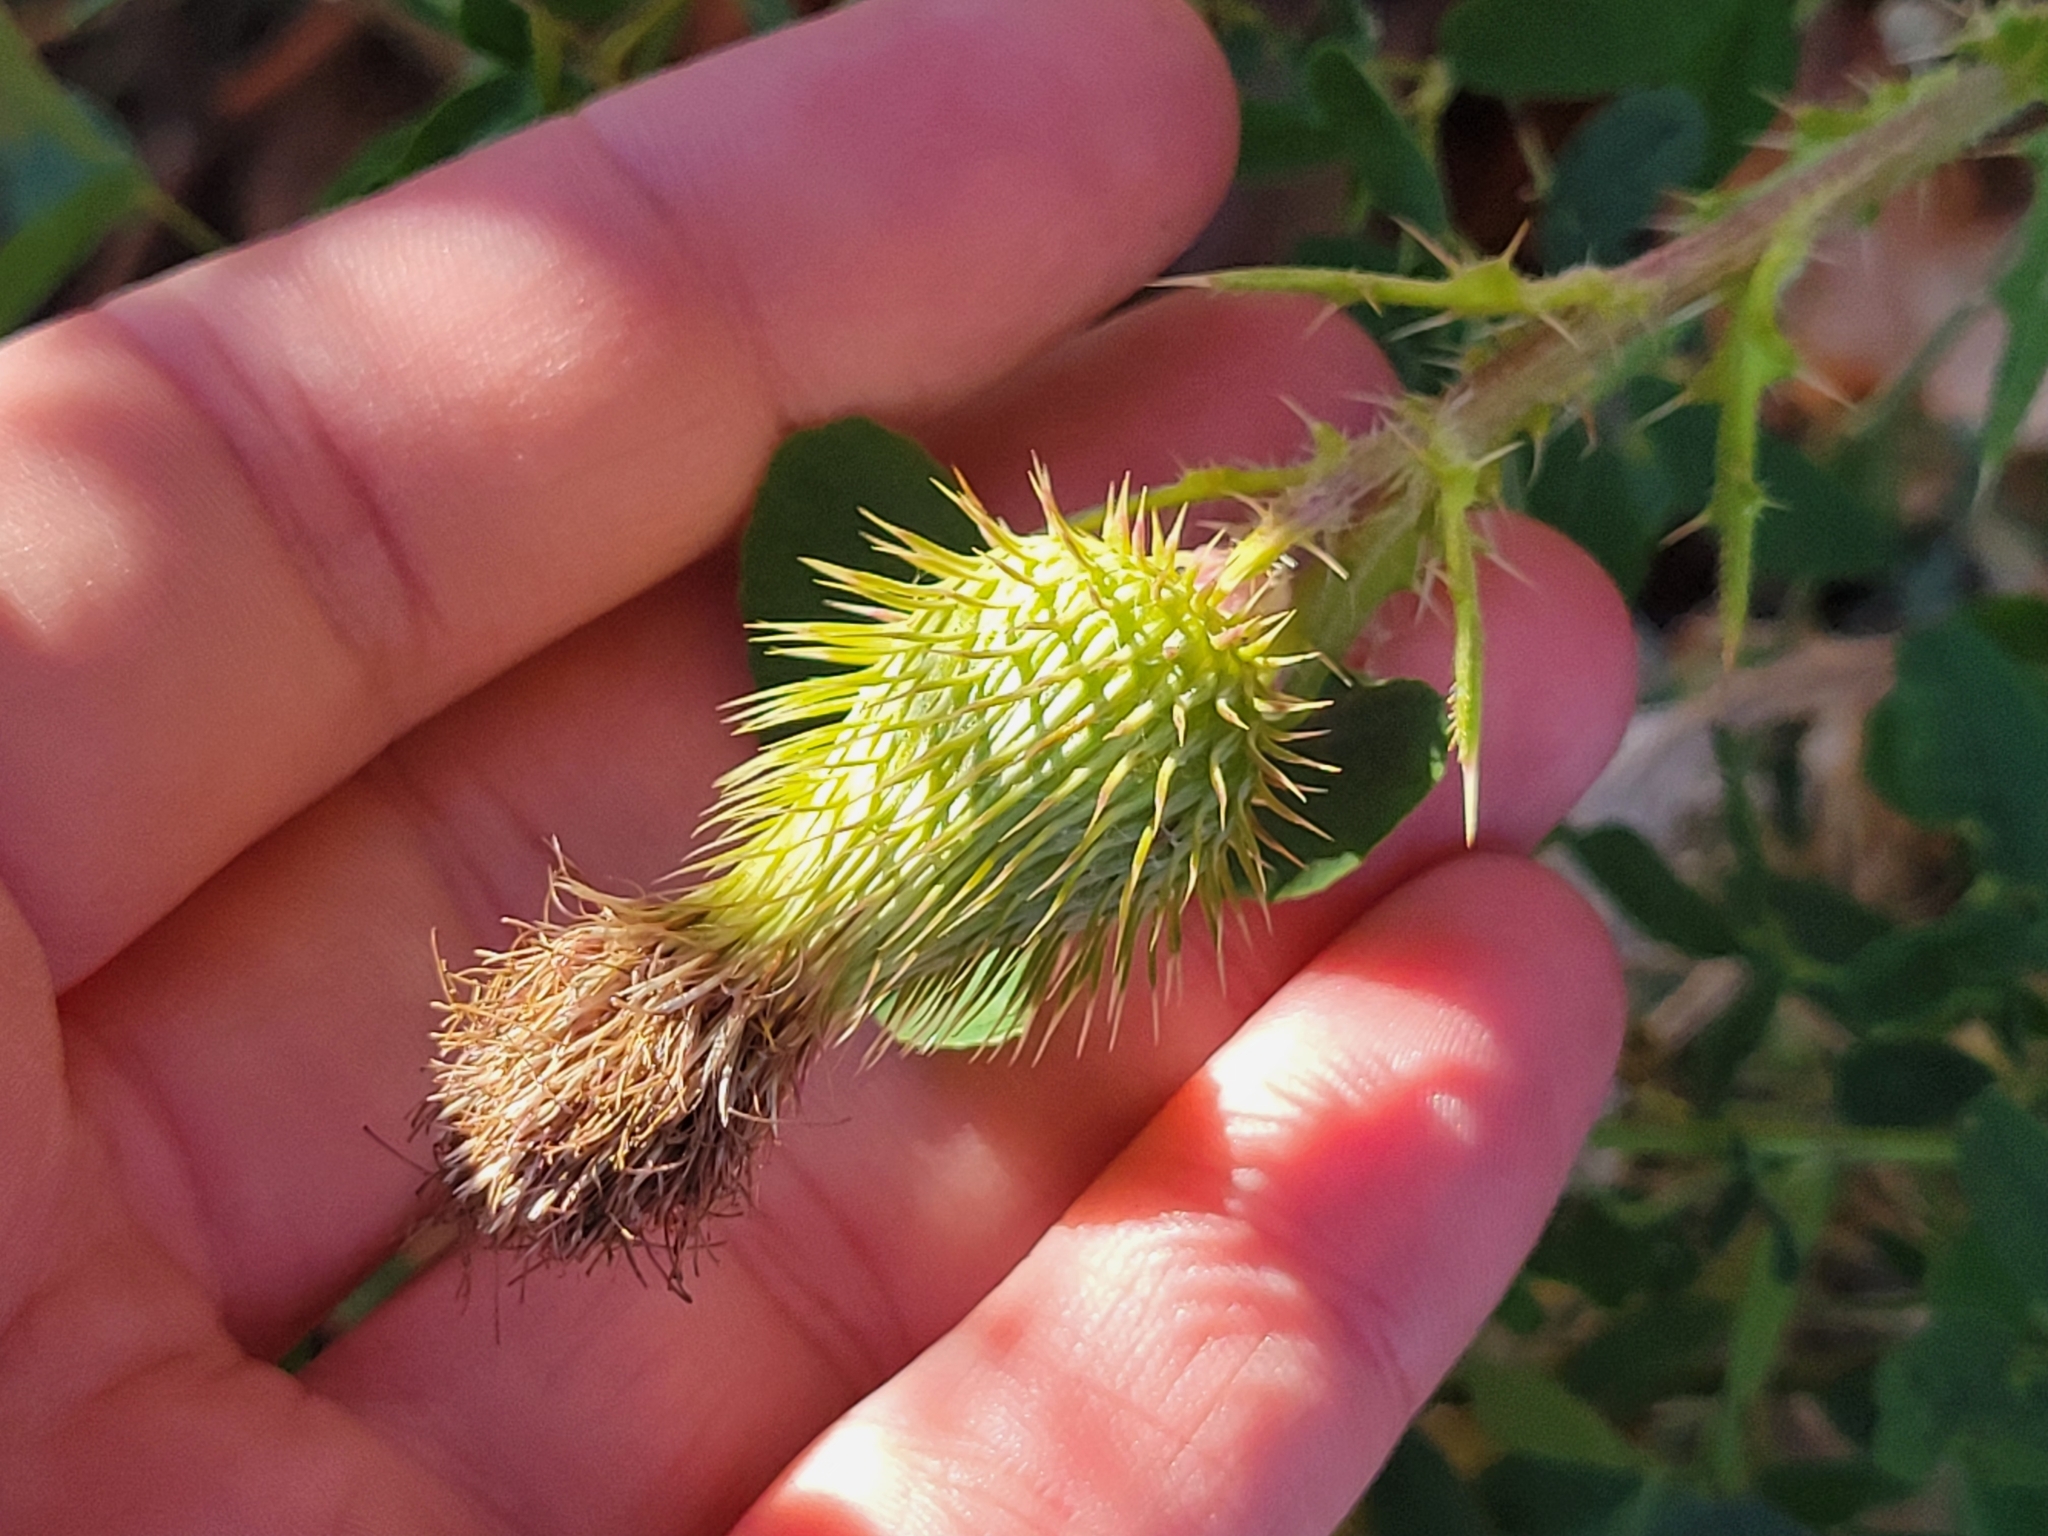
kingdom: Plantae
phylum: Tracheophyta
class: Magnoliopsida
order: Asterales
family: Asteraceae
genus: Cirsium
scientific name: Cirsium vulgare
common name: Bull thistle
